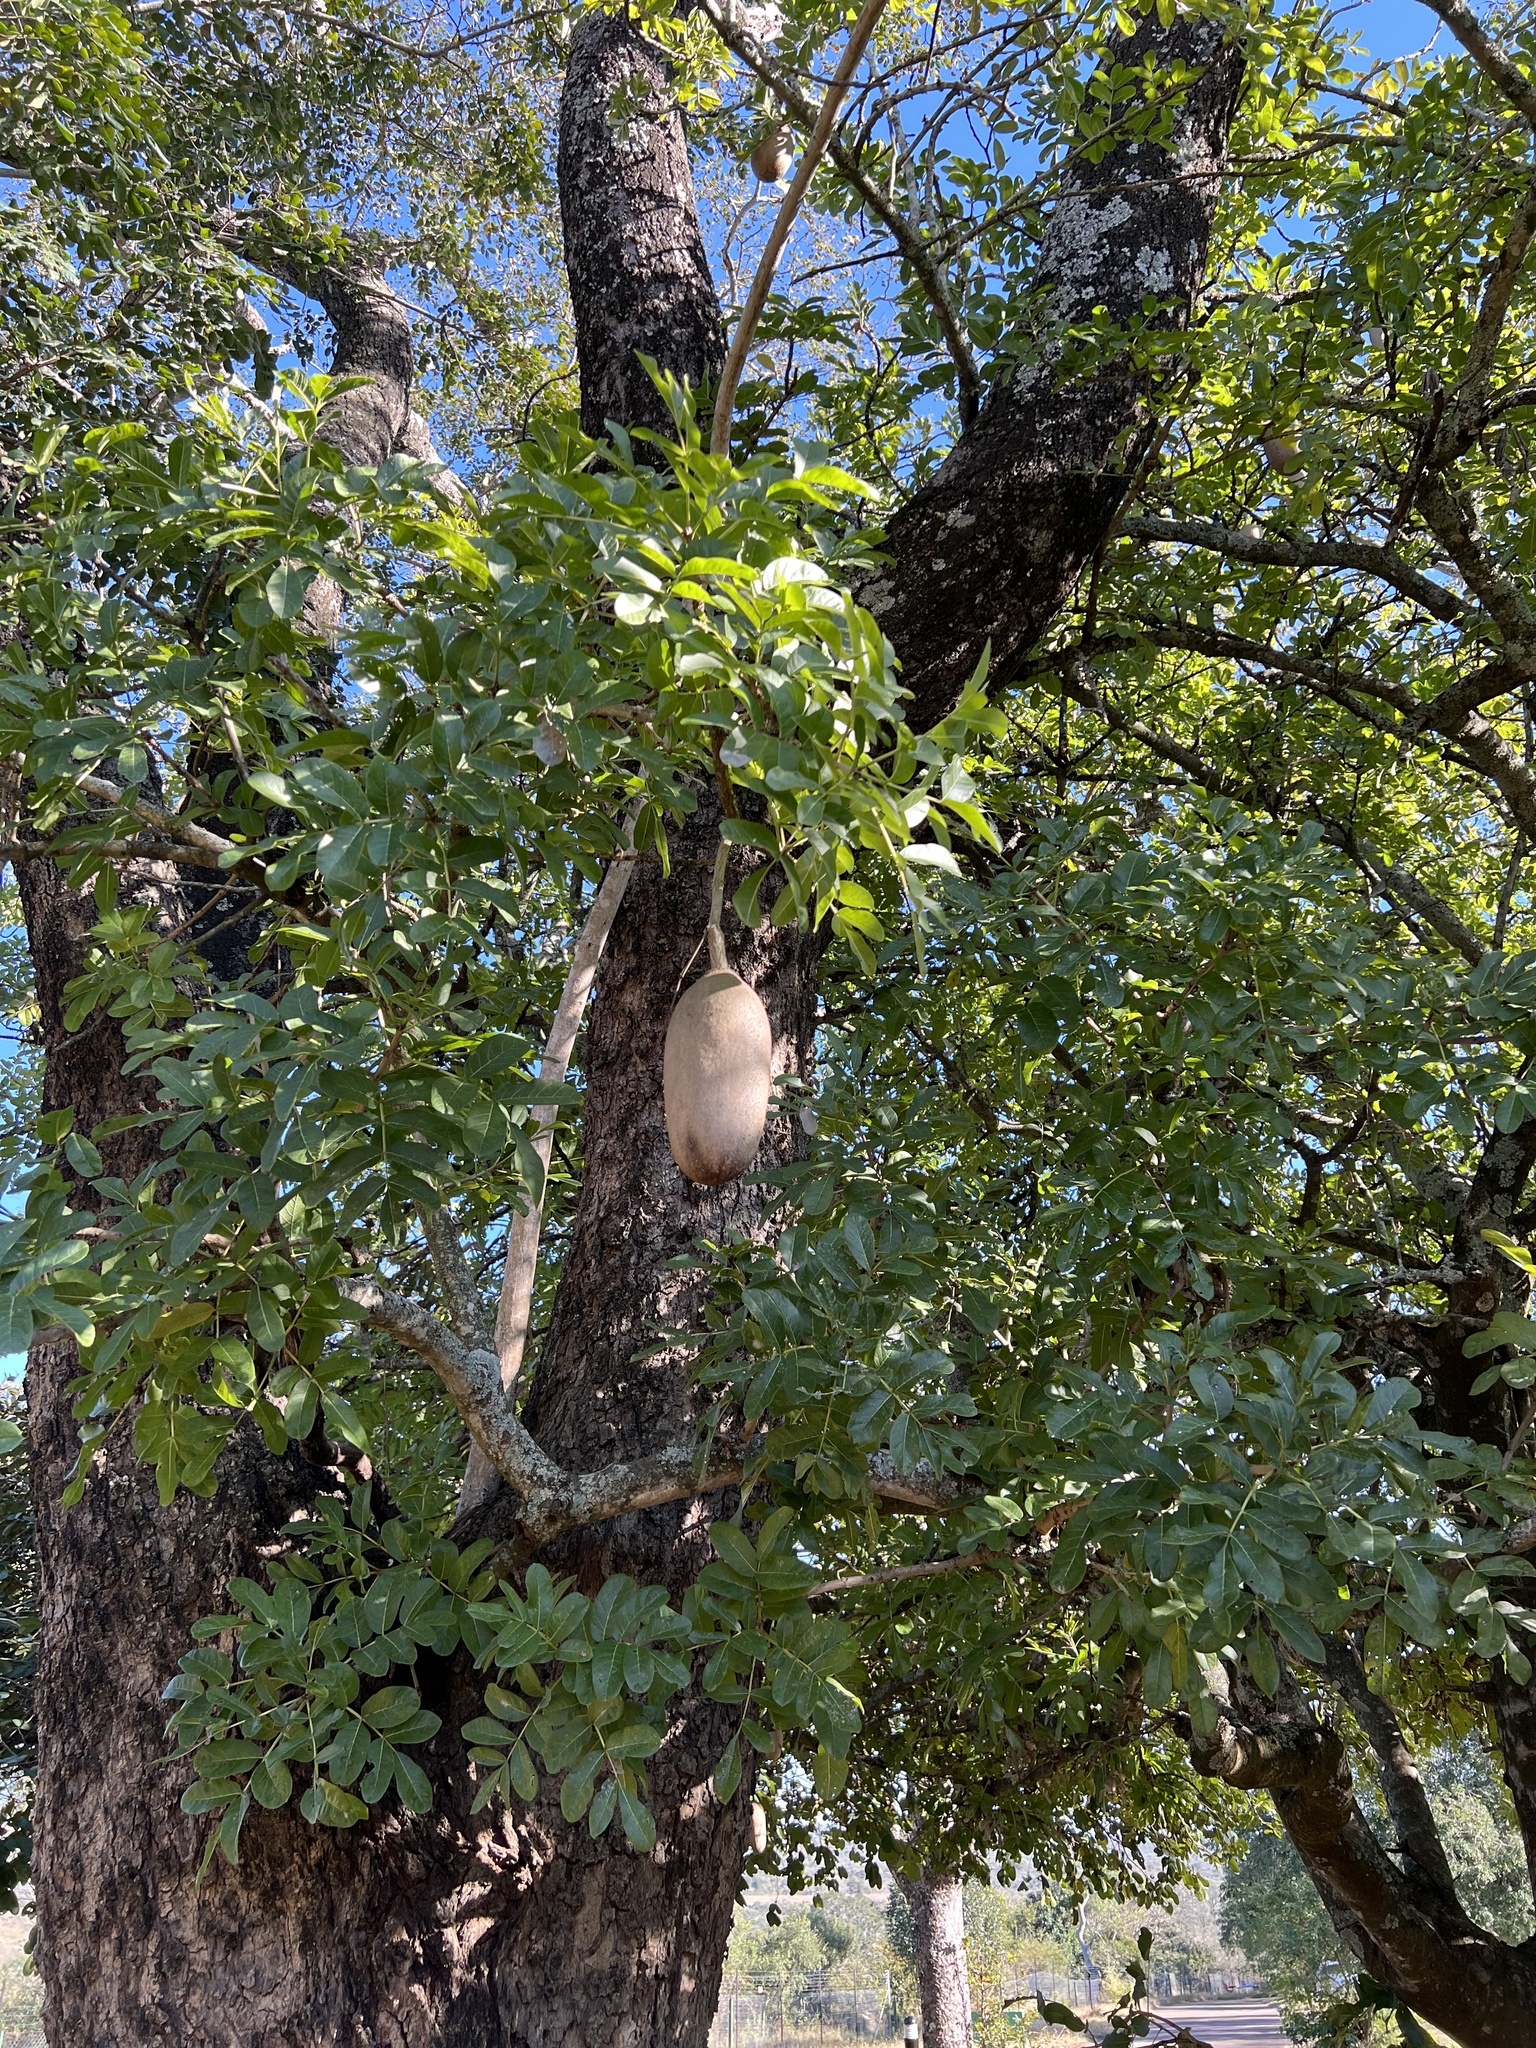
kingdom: Plantae
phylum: Tracheophyta
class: Magnoliopsida
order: Lamiales
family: Bignoniaceae
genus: Kigelia
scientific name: Kigelia africana
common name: Sausage tree
